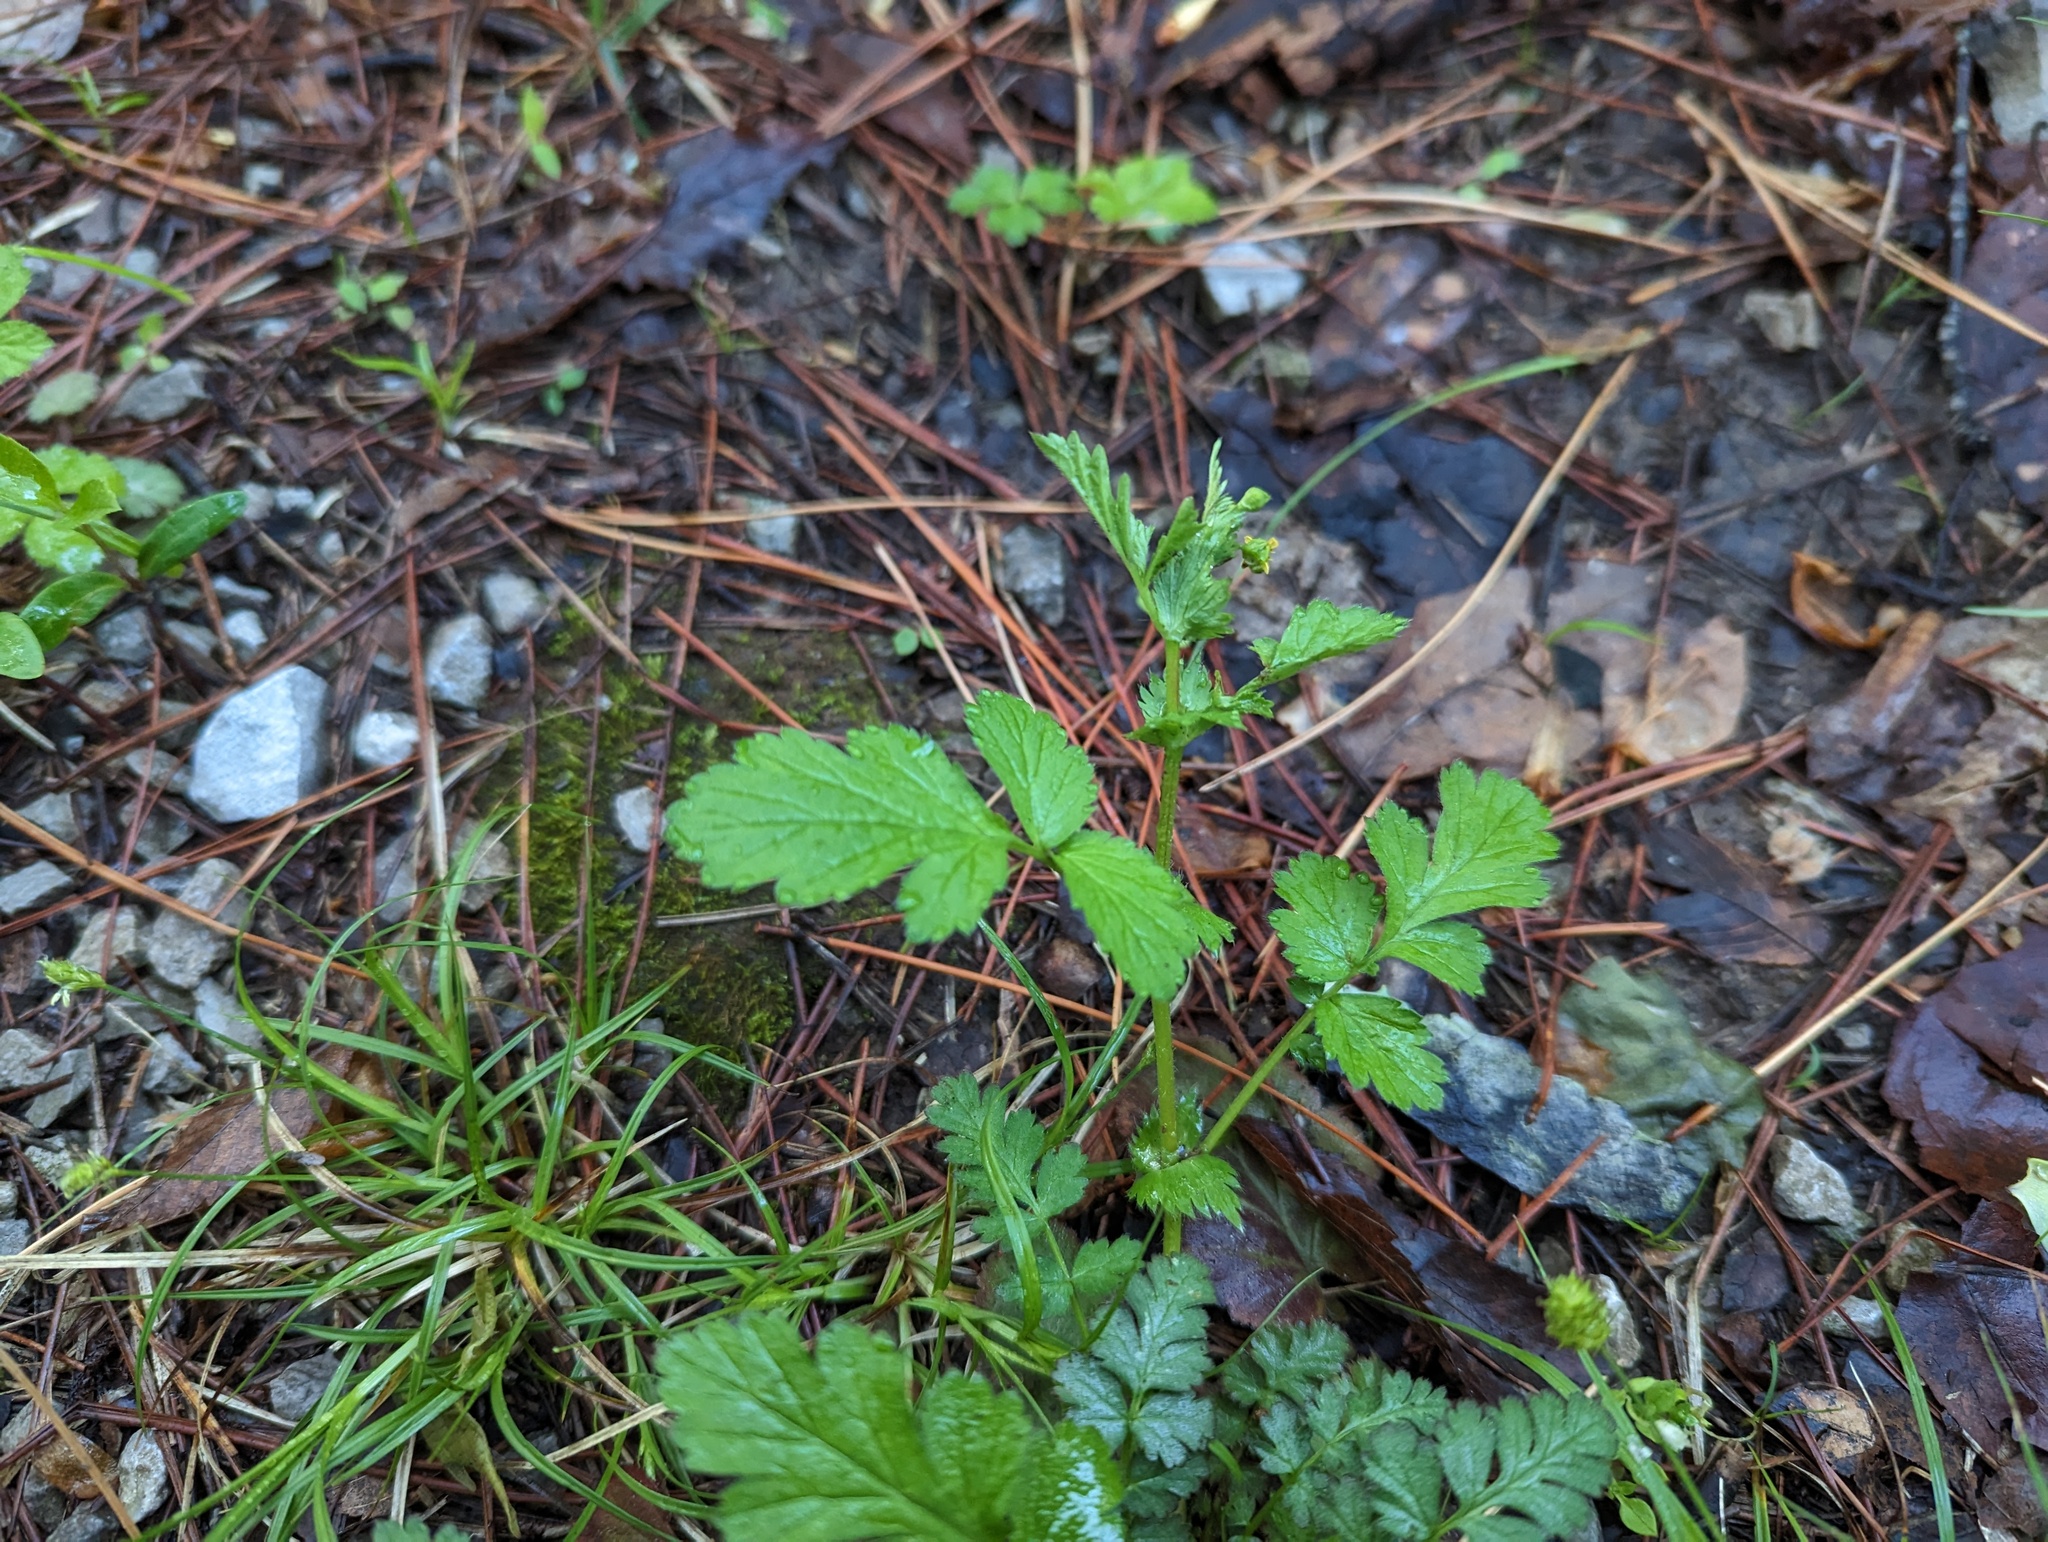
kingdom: Plantae
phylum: Tracheophyta
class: Magnoliopsida
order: Rosales
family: Rosaceae
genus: Geum
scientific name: Geum vernum
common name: Spring avens
